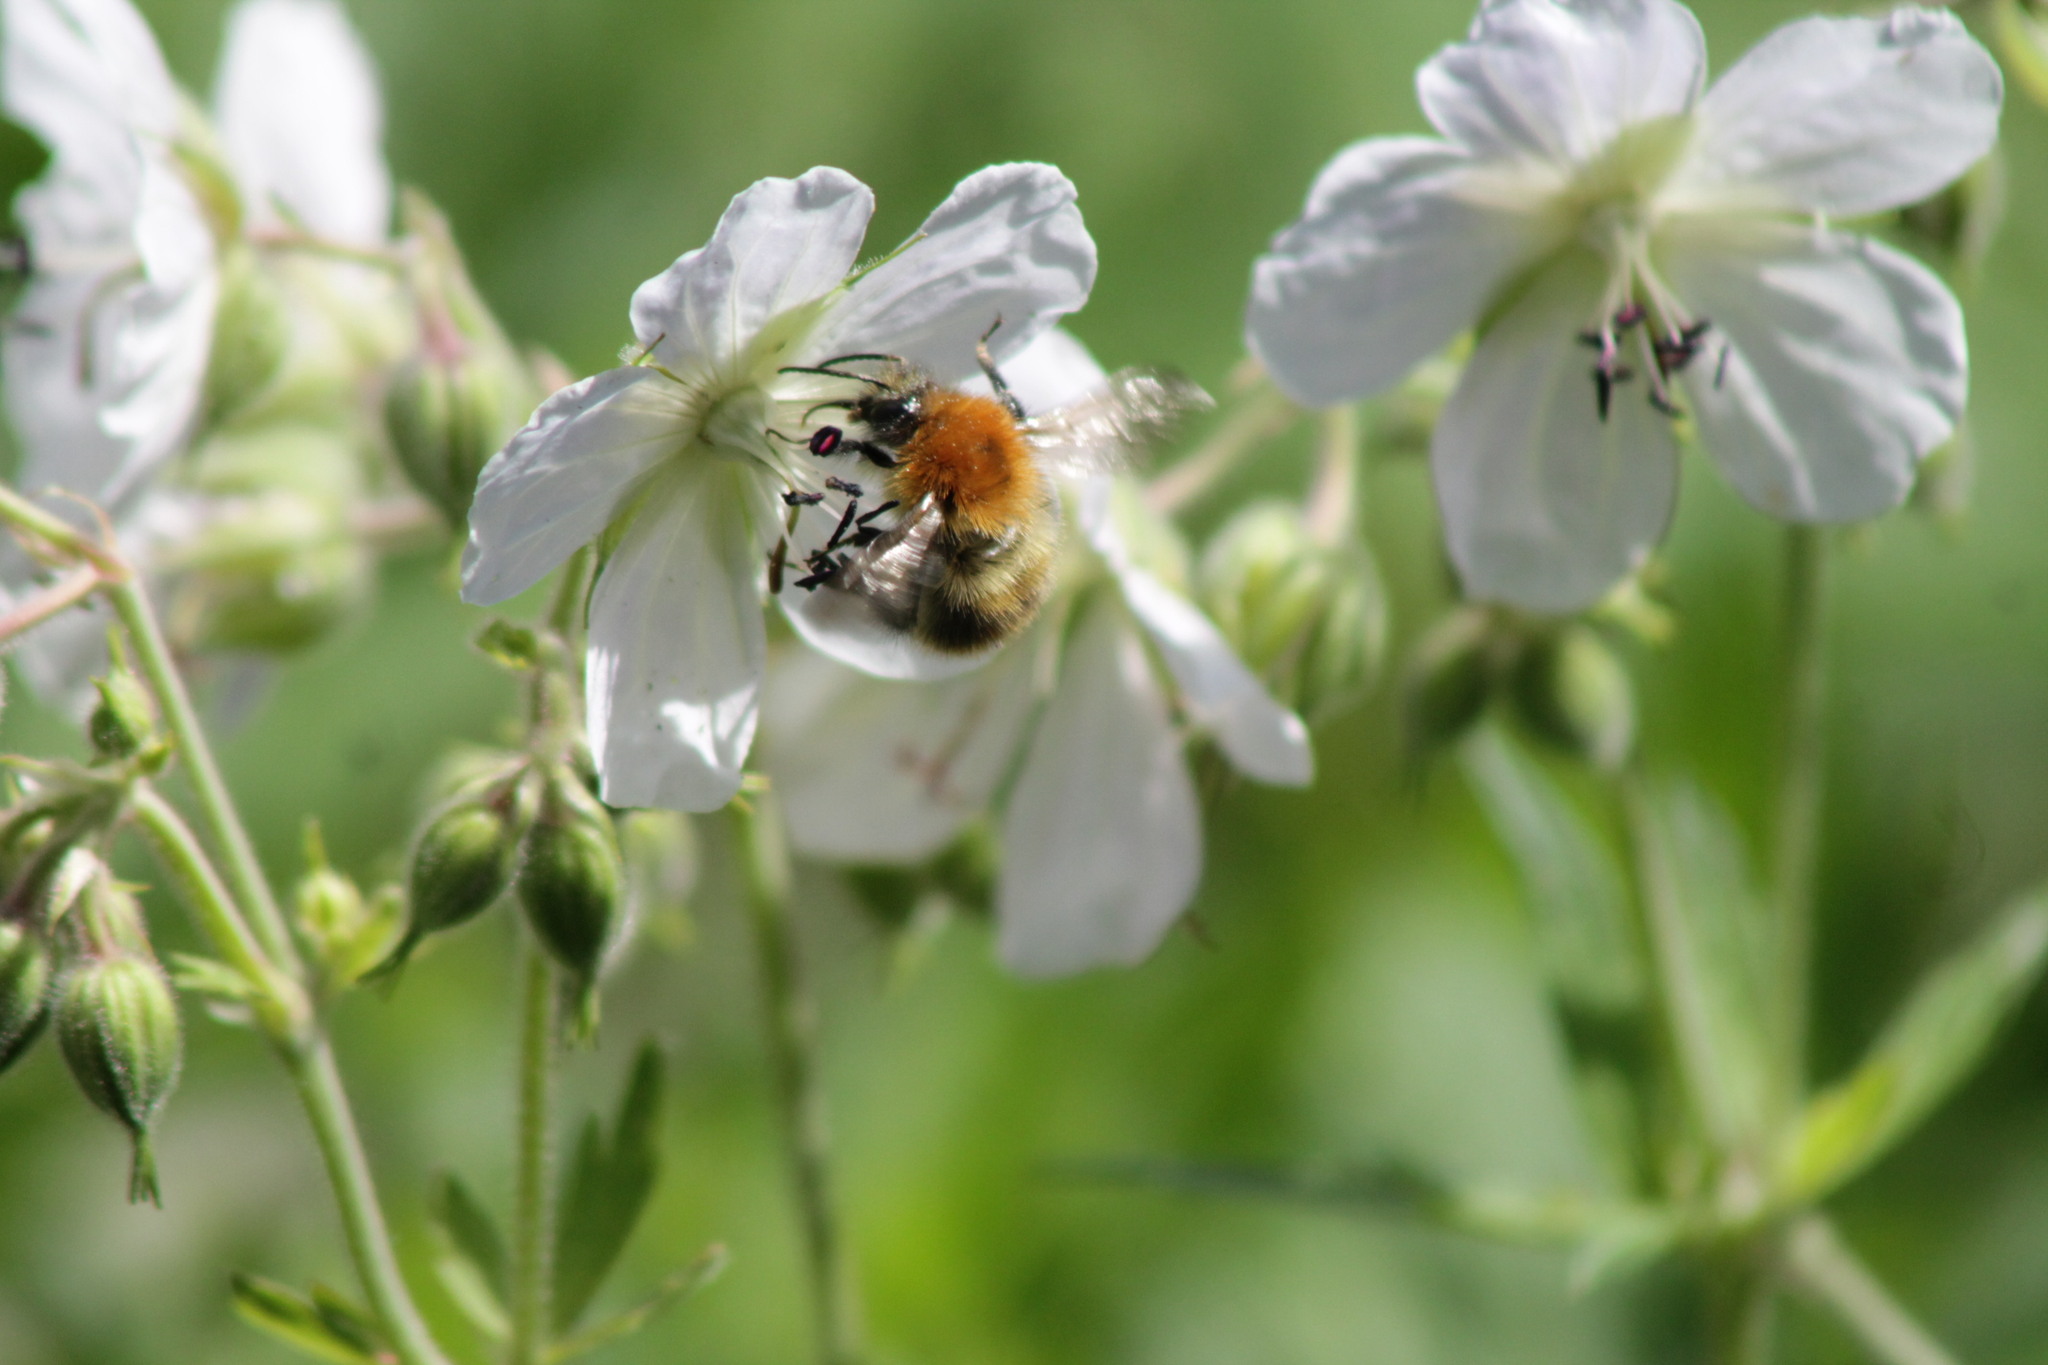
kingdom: Animalia
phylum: Arthropoda
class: Insecta
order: Hymenoptera
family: Apidae
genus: Bombus
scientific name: Bombus pascuorum
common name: Common carder bee
